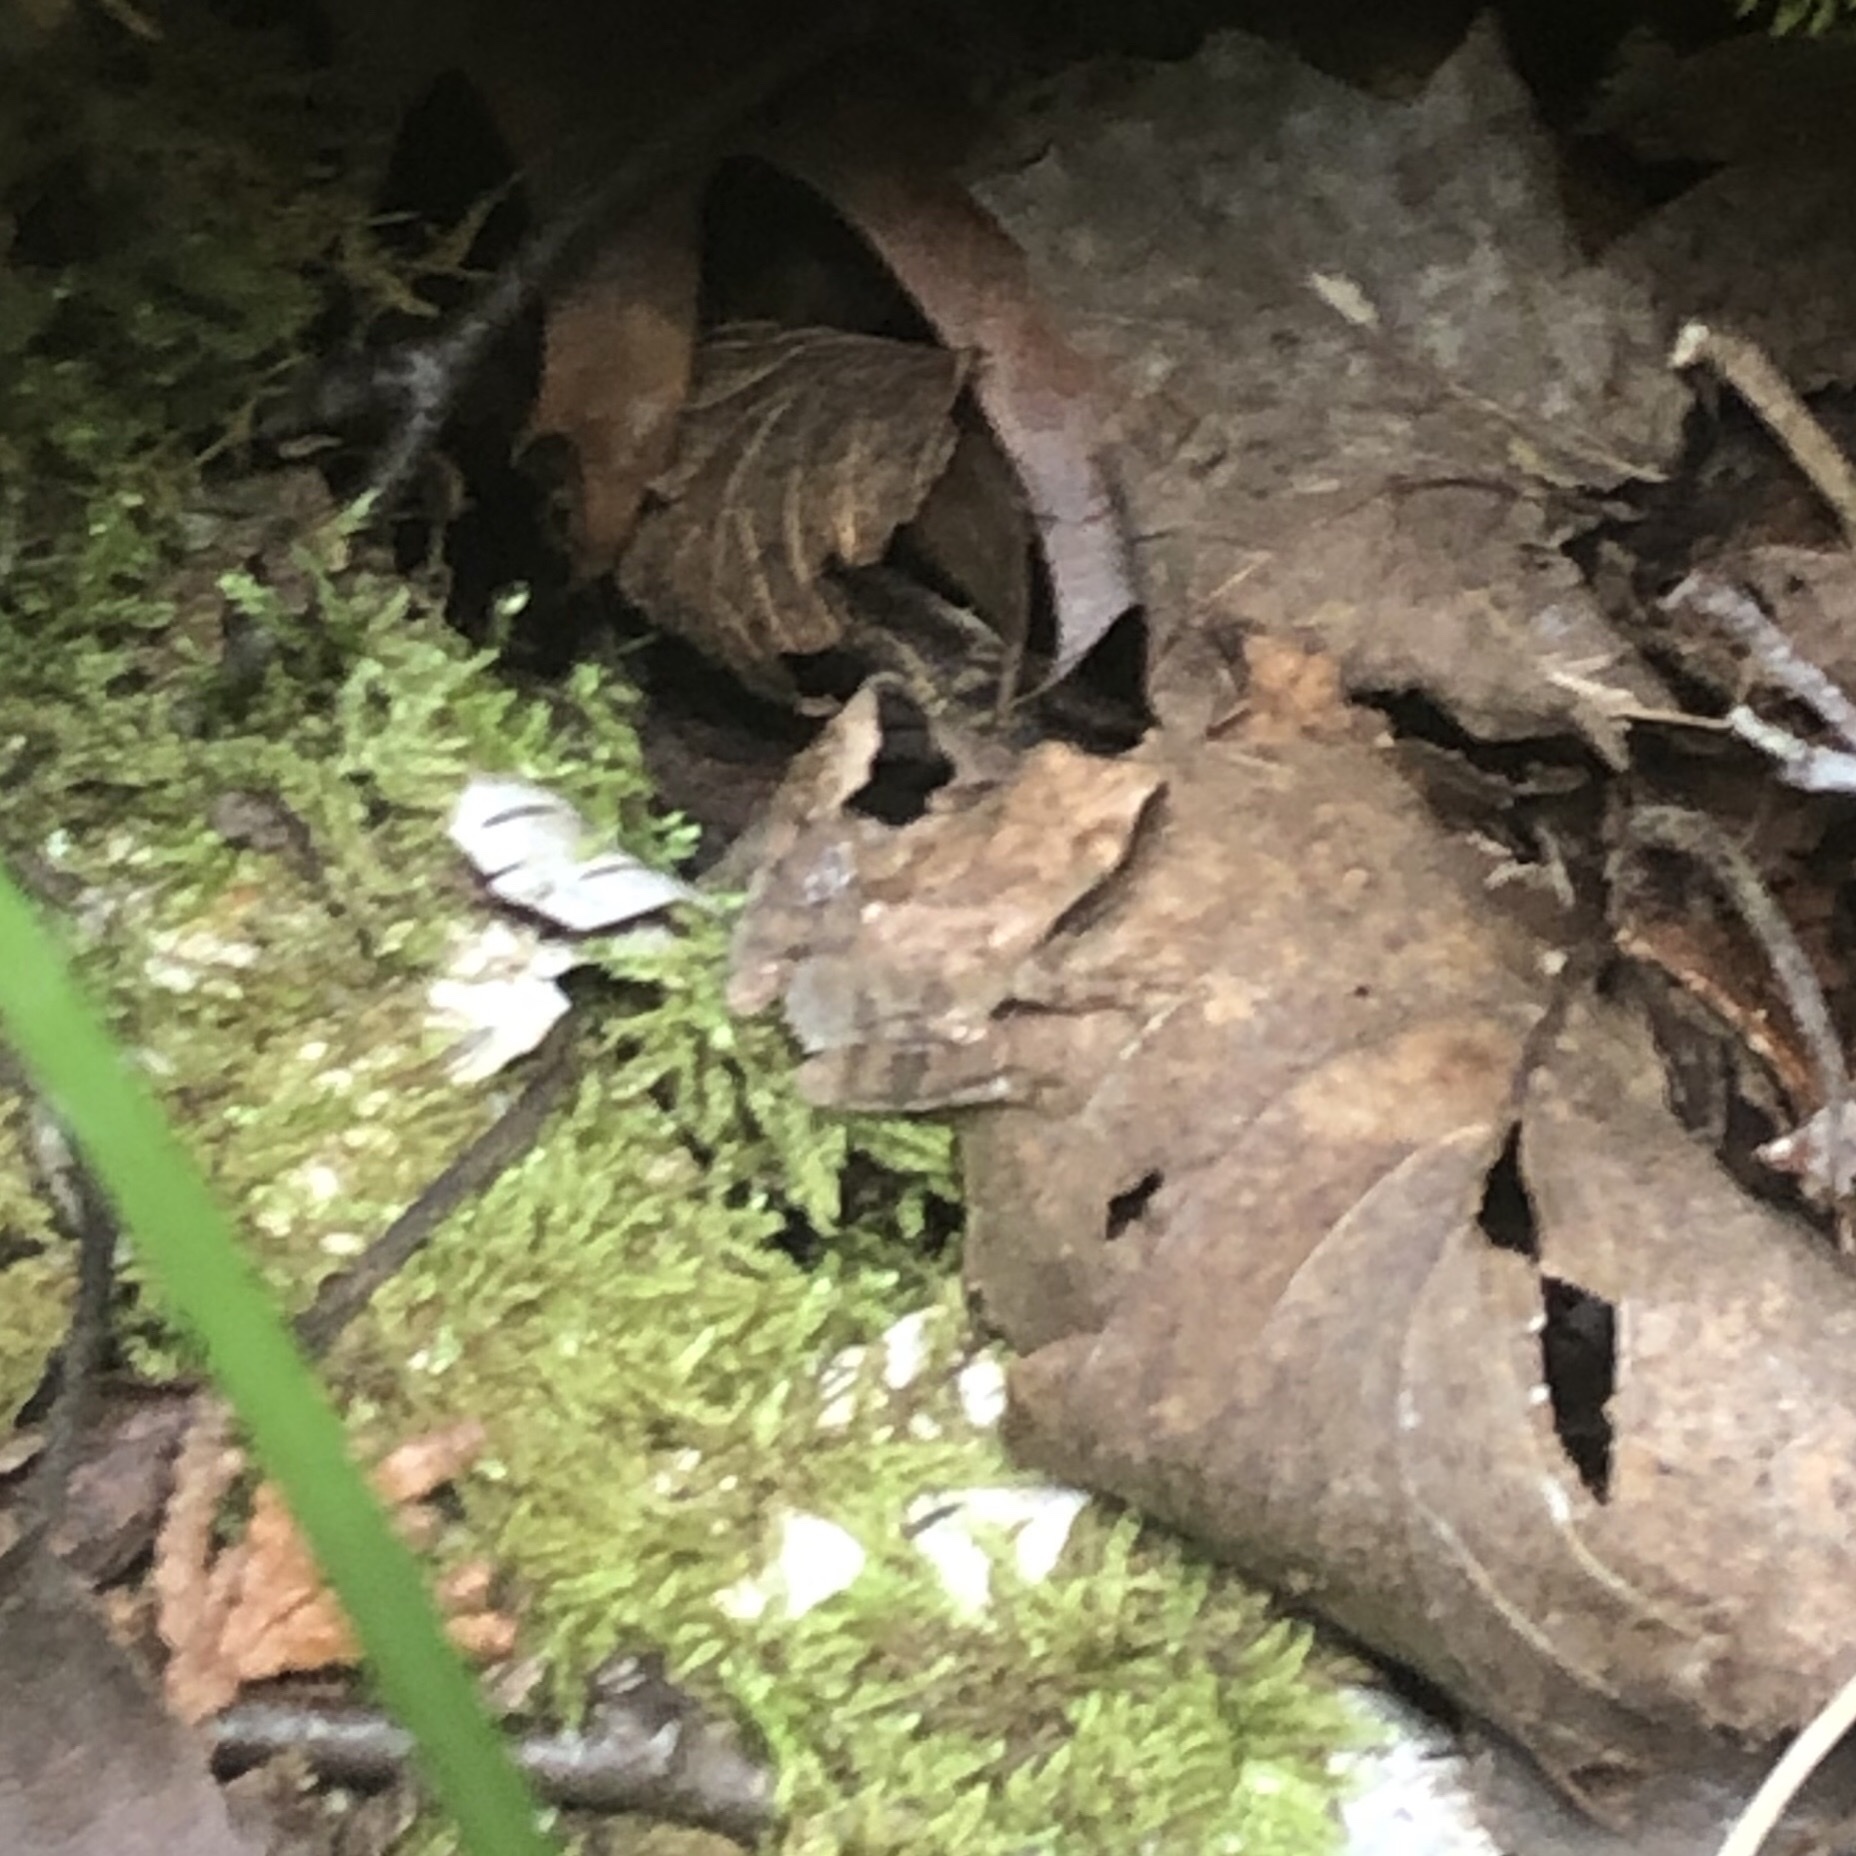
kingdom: Animalia
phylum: Chordata
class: Amphibia
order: Anura
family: Hylidae
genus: Pseudacris
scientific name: Pseudacris crucifer
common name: Spring peeper
